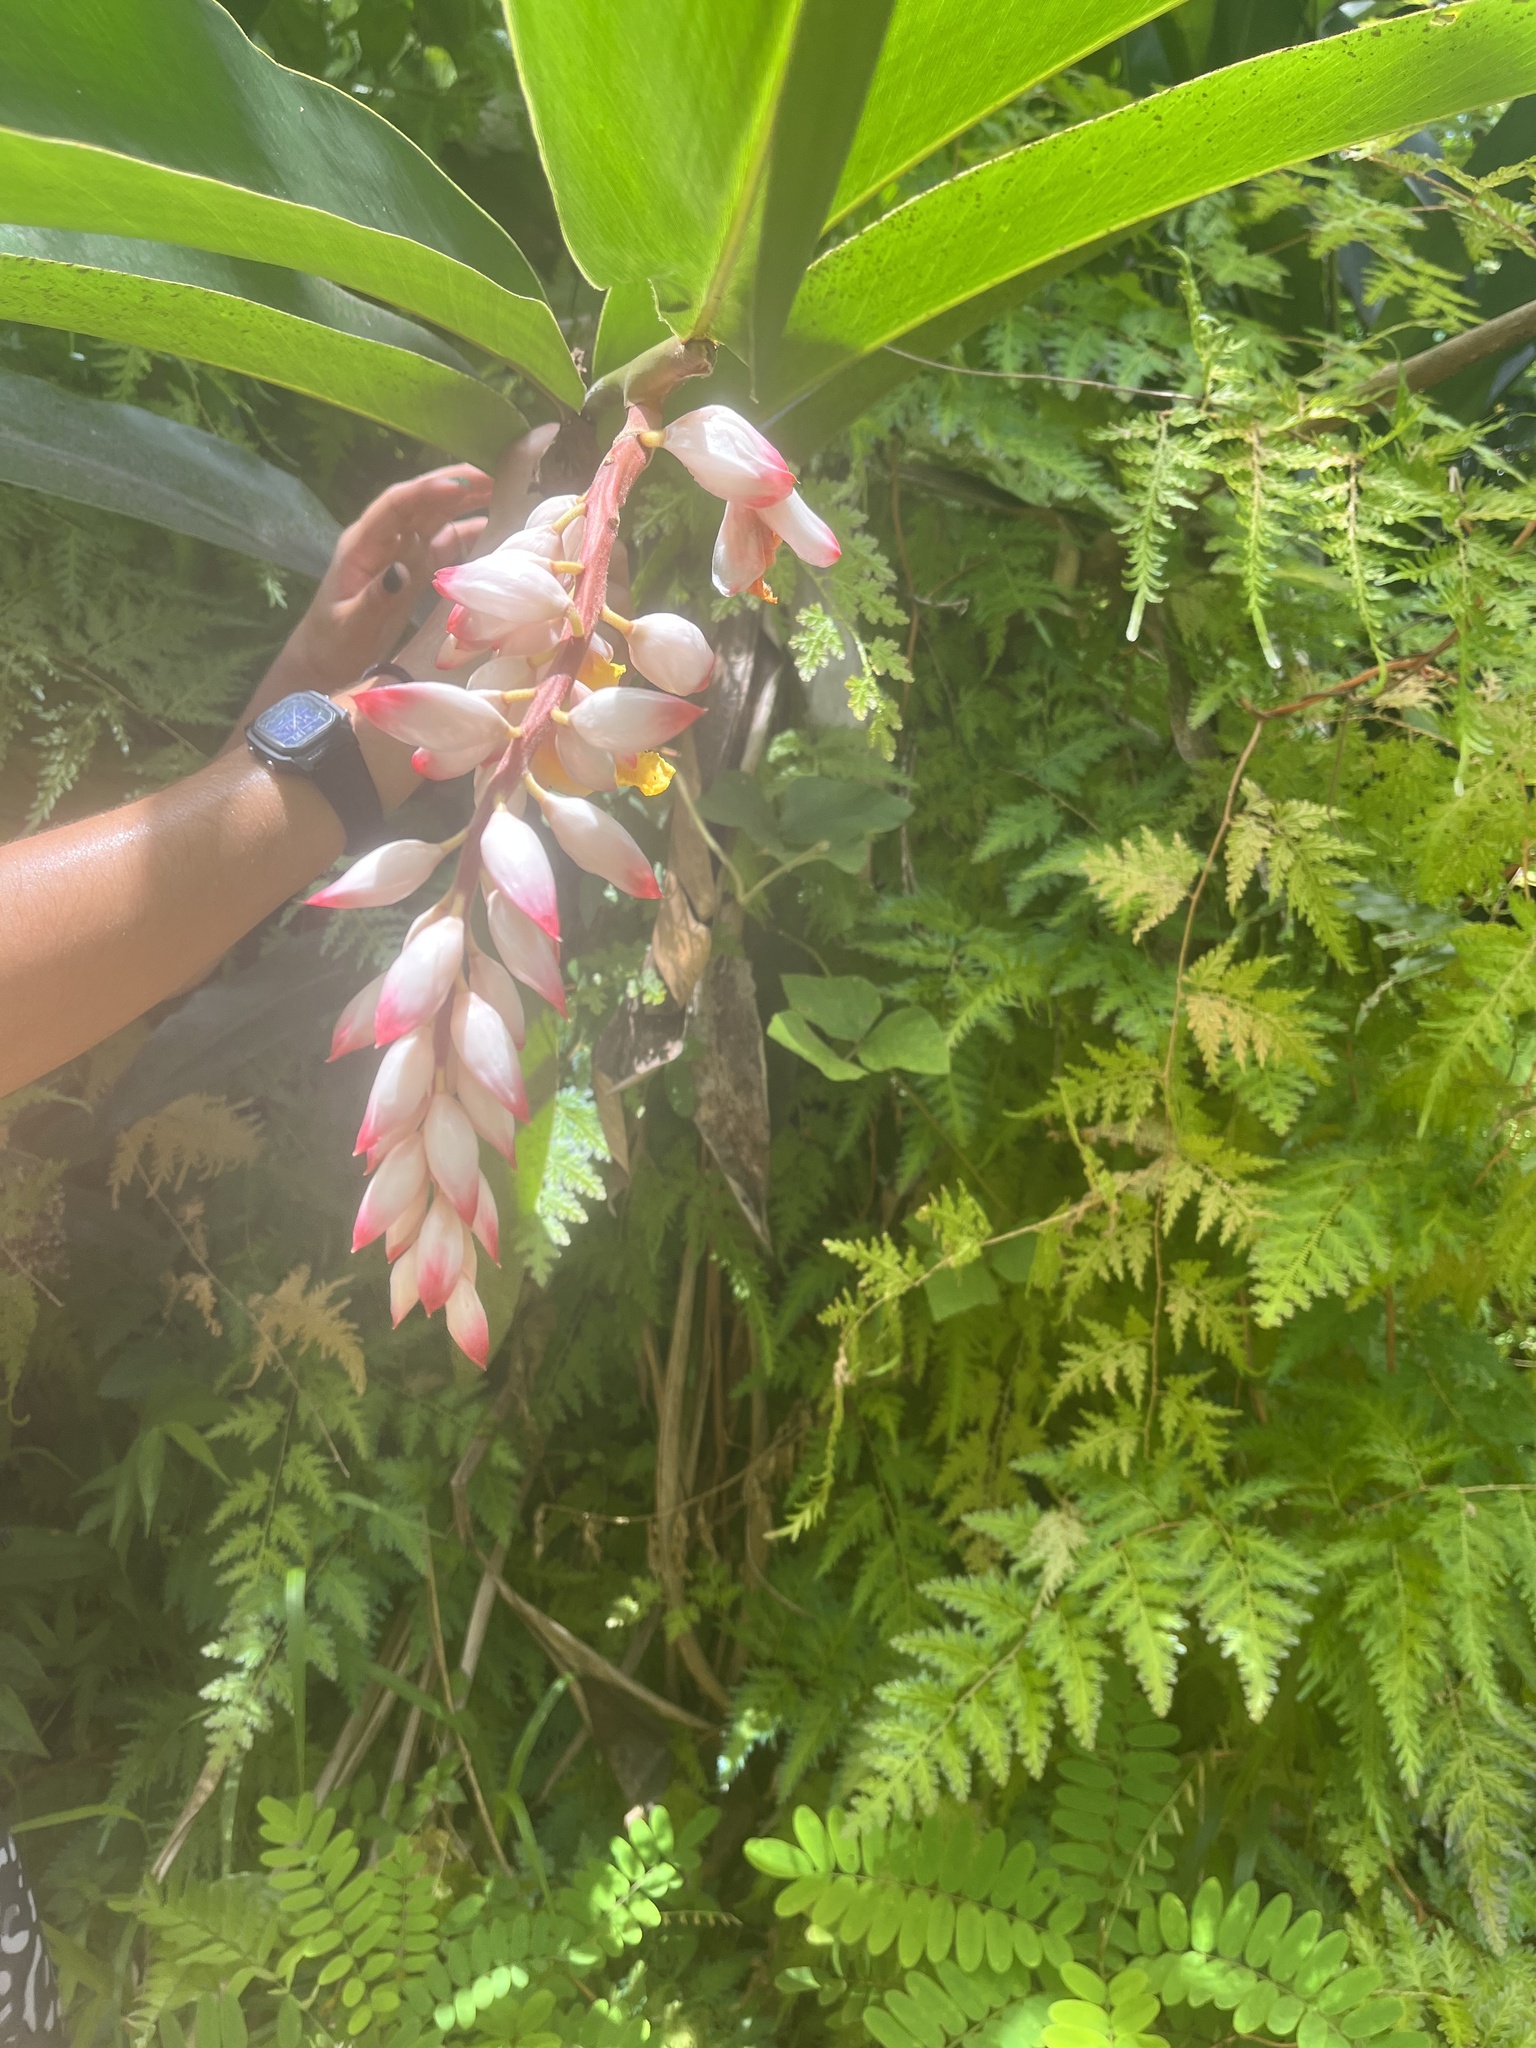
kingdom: Plantae
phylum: Tracheophyta
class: Liliopsida
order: Zingiberales
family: Zingiberaceae
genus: Alpinia
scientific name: Alpinia zerumbet
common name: Shellplant
